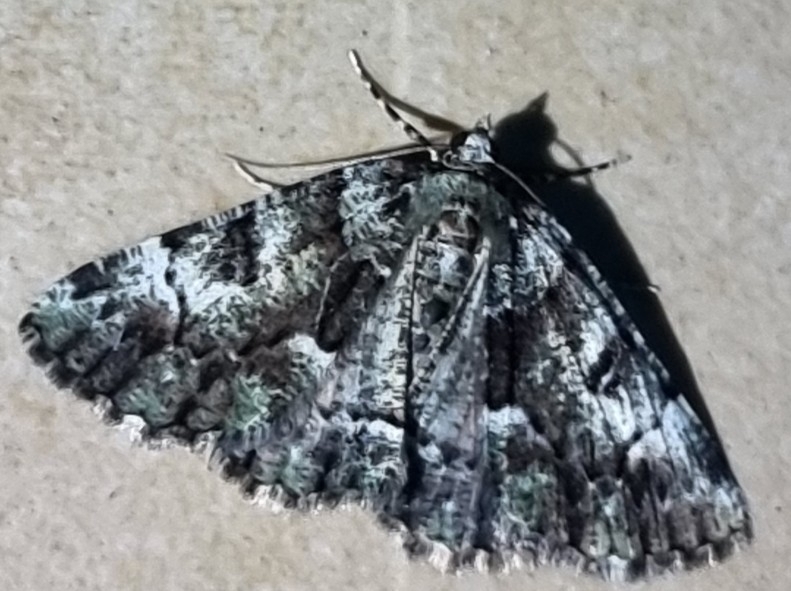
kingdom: Animalia
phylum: Arthropoda
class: Insecta
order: Lepidoptera
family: Geometridae
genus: Aeolochroma
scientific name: Aeolochroma metarhodata
